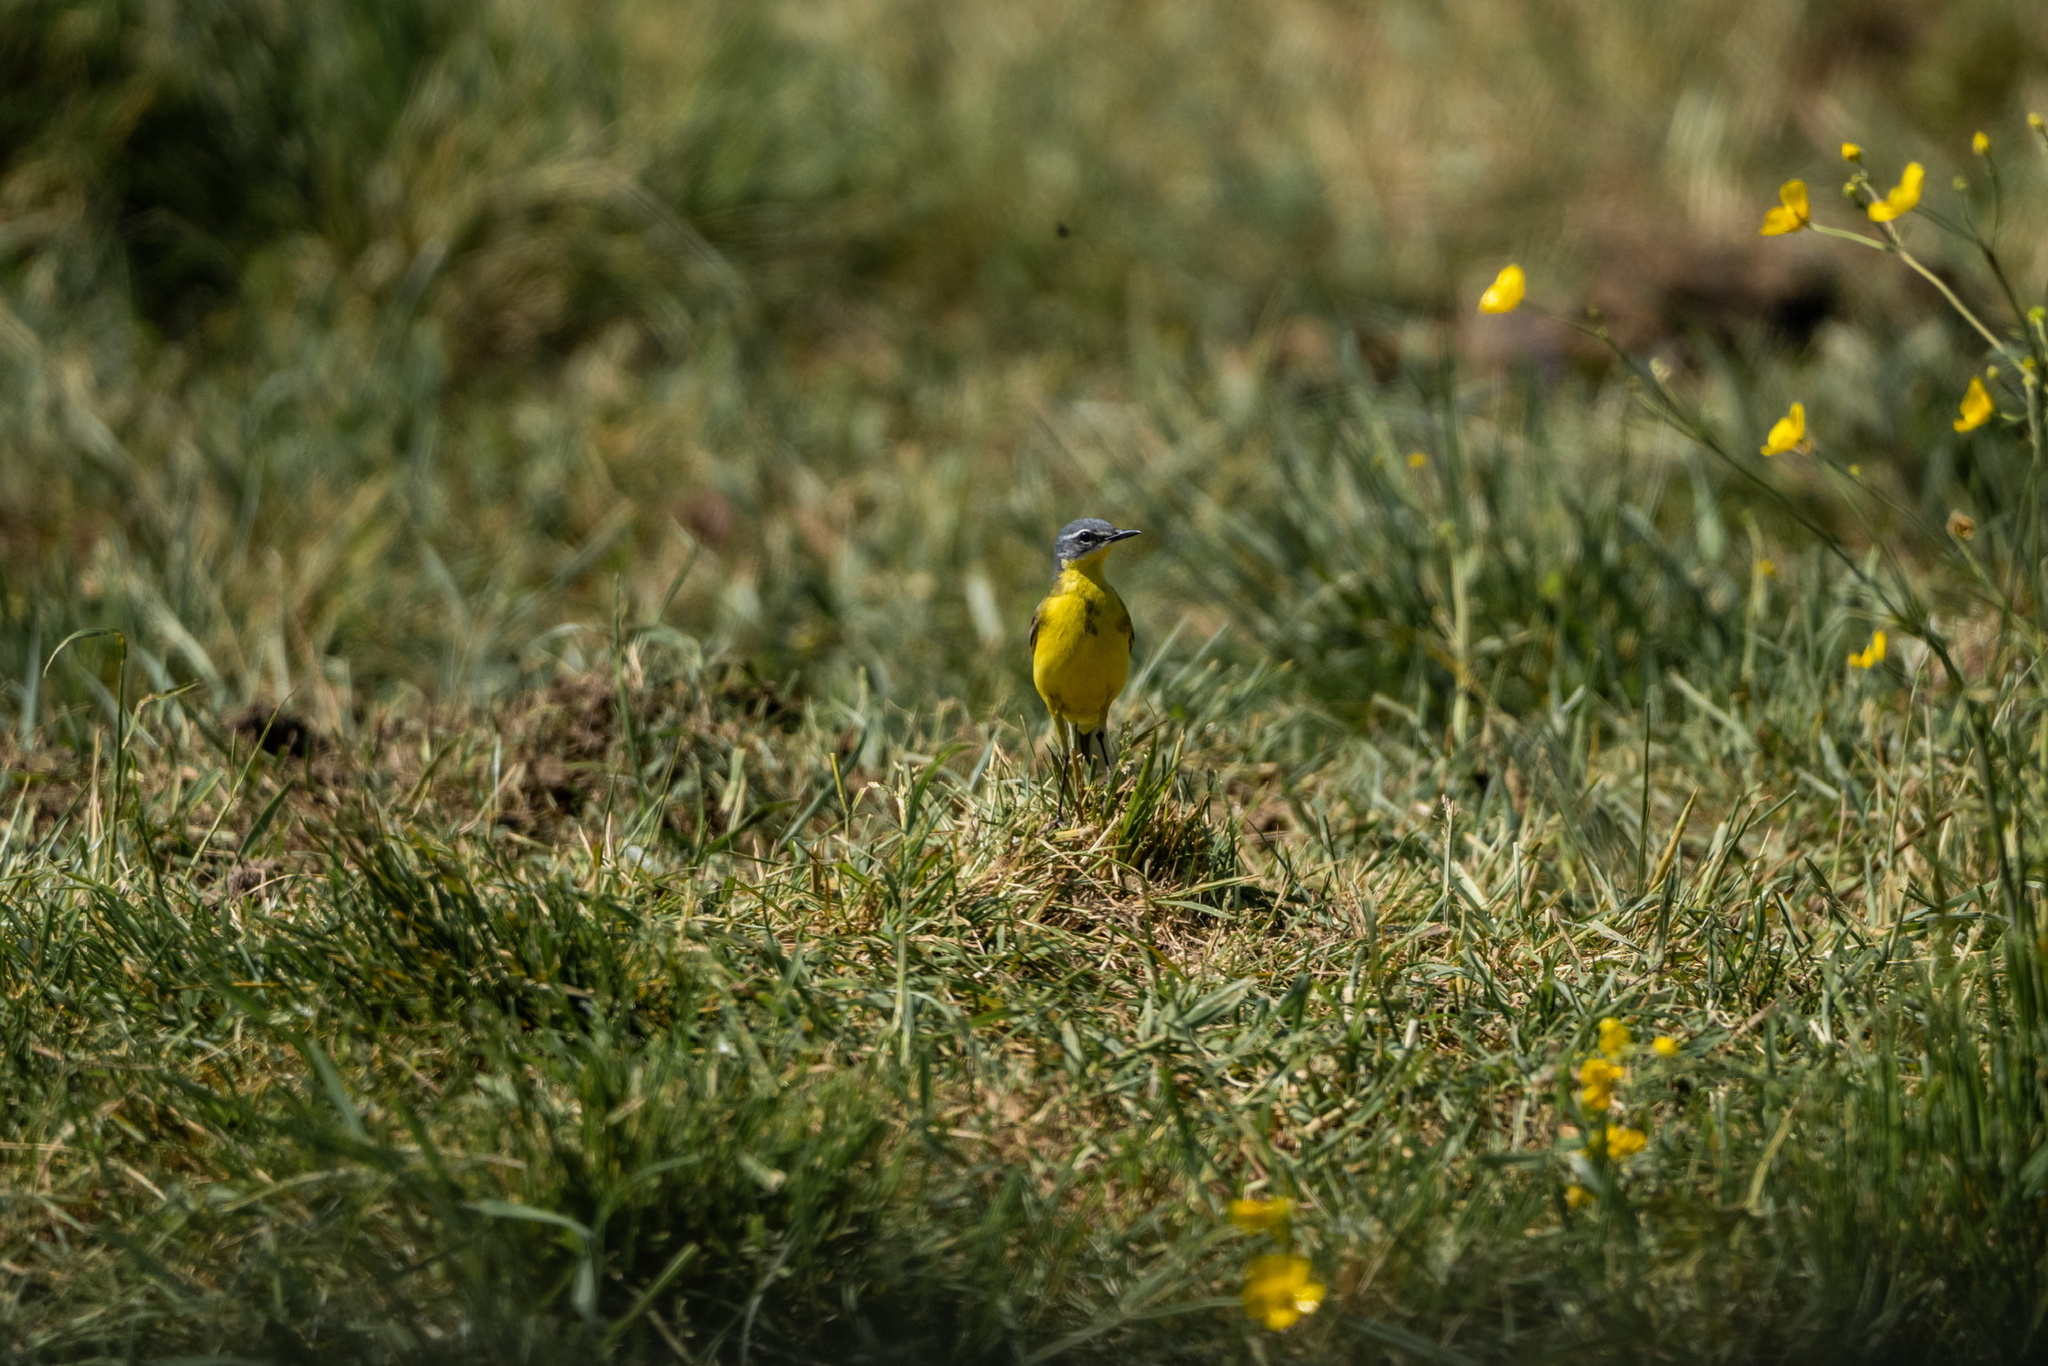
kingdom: Animalia
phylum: Chordata
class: Aves
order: Passeriformes
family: Motacillidae
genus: Motacilla
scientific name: Motacilla flava
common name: Western yellow wagtail
